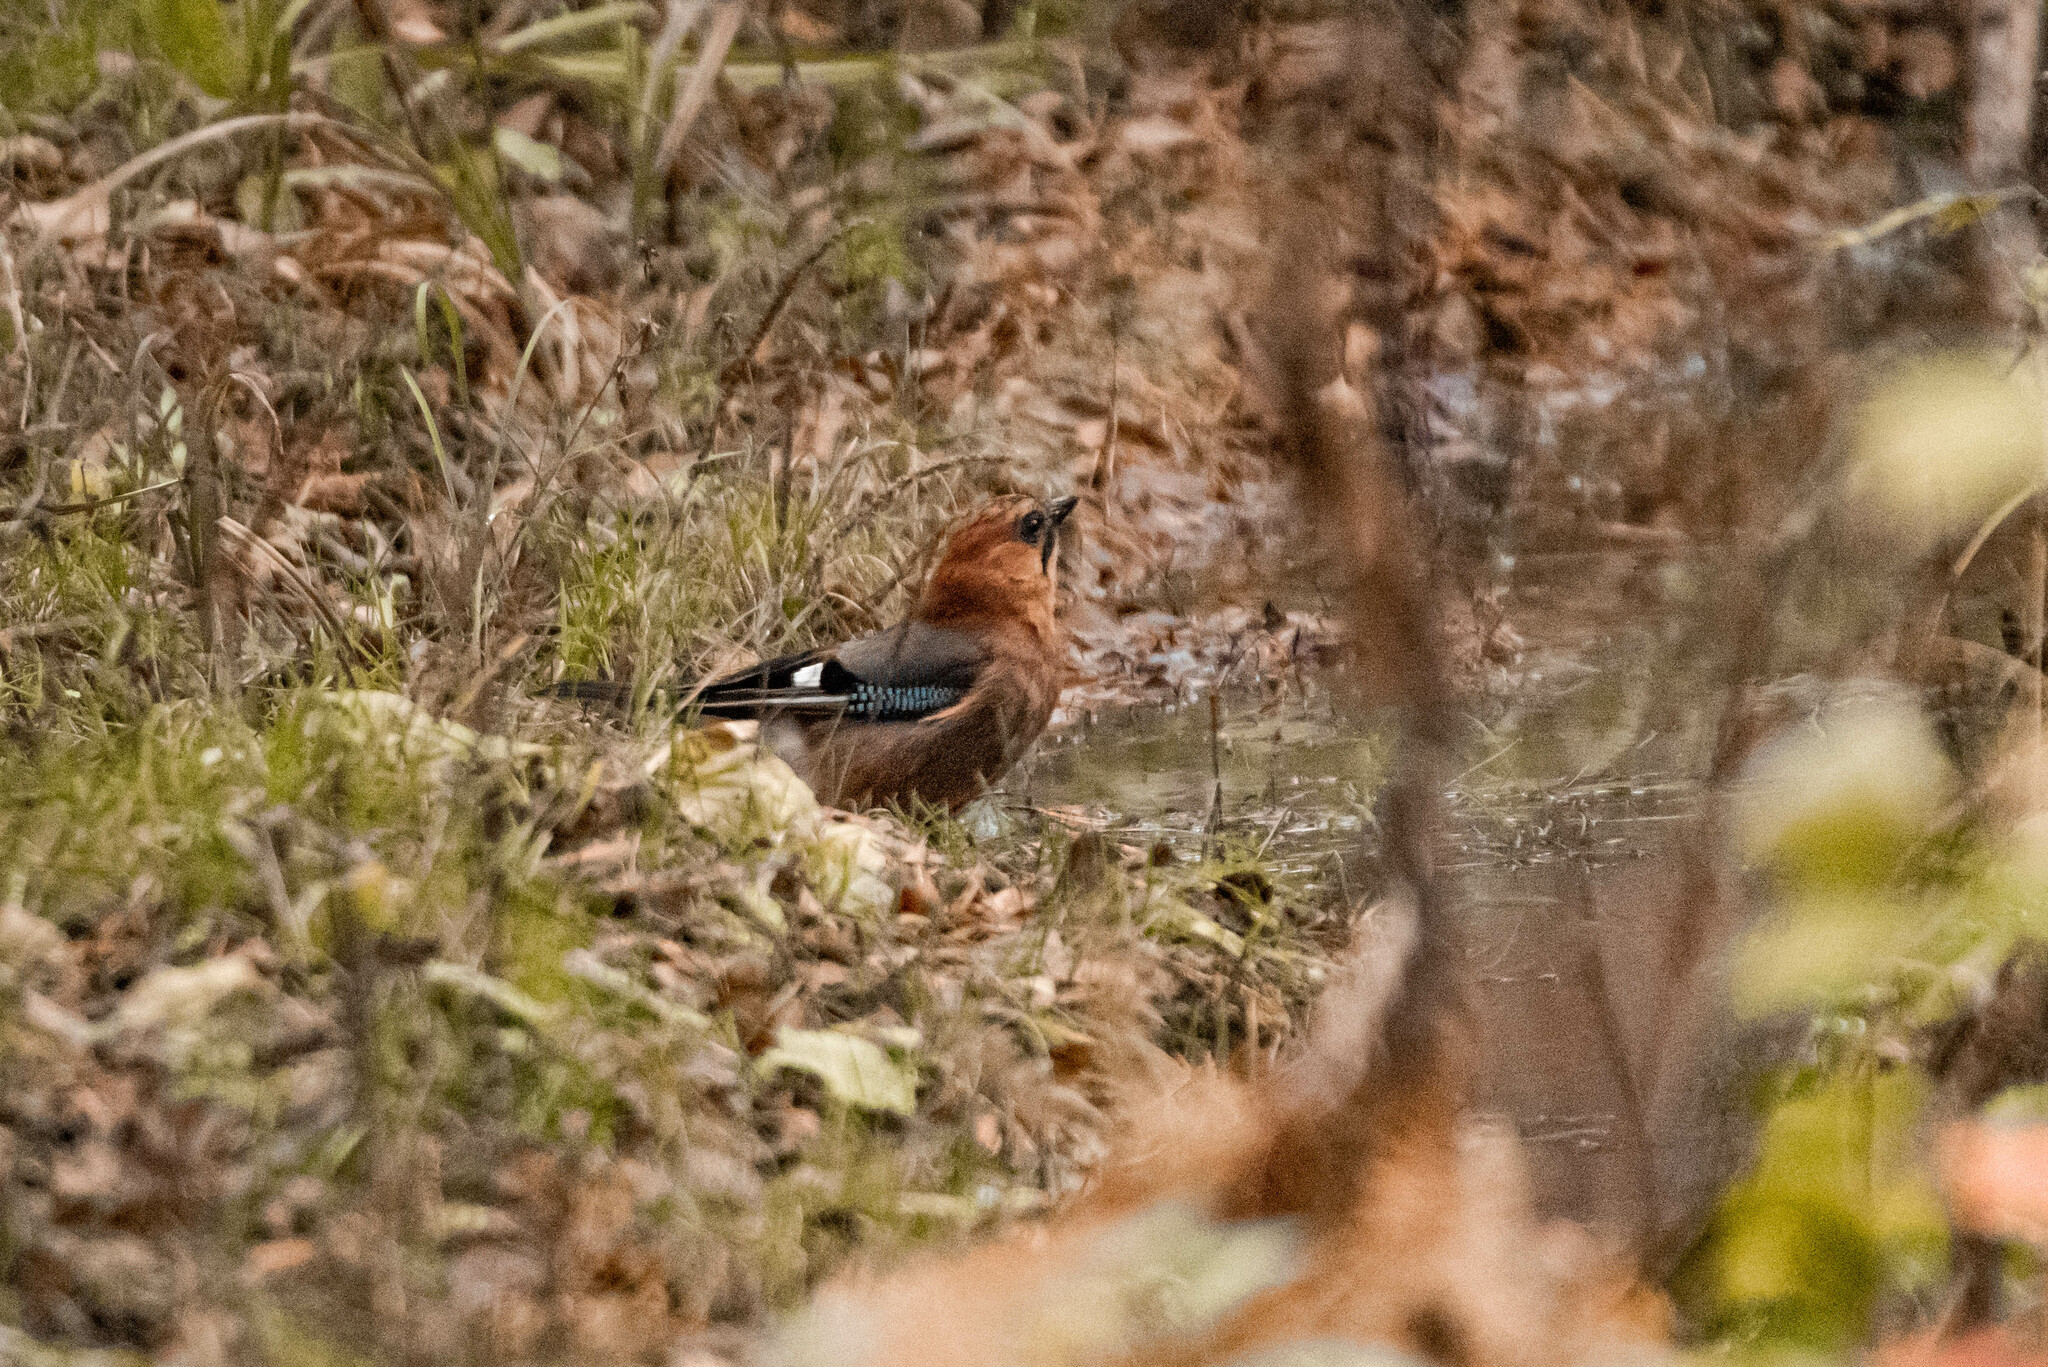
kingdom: Animalia
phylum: Chordata
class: Aves
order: Passeriformes
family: Corvidae
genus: Garrulus
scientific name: Garrulus glandarius
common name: Eurasian jay
